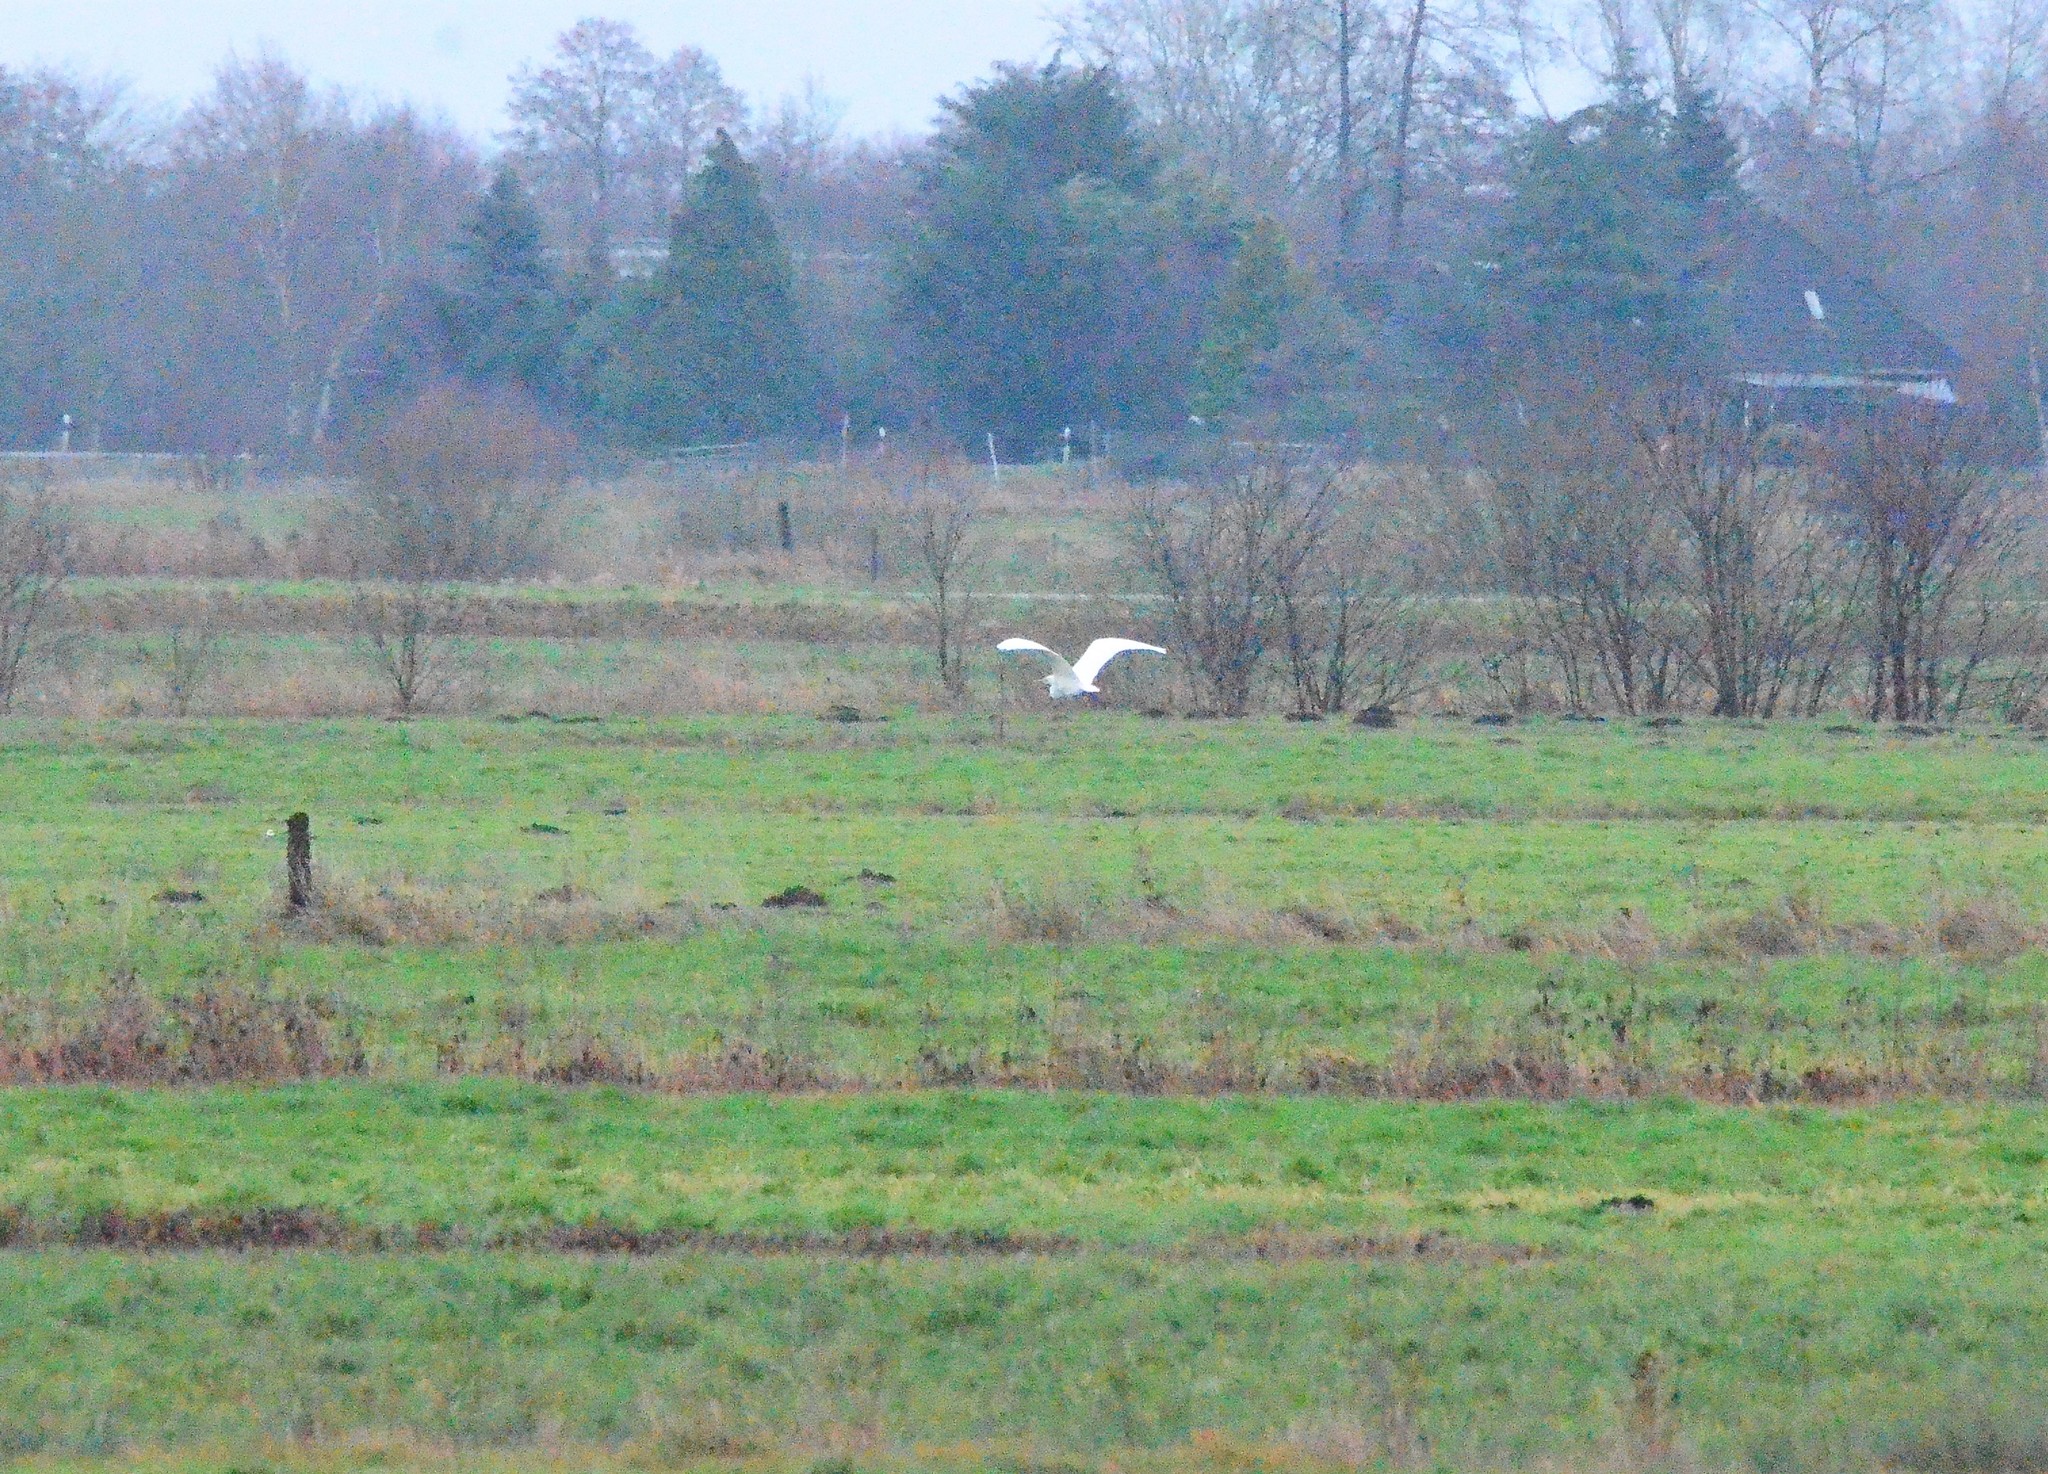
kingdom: Animalia
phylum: Chordata
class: Aves
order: Pelecaniformes
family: Ardeidae
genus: Ardea
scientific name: Ardea alba
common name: Great egret
